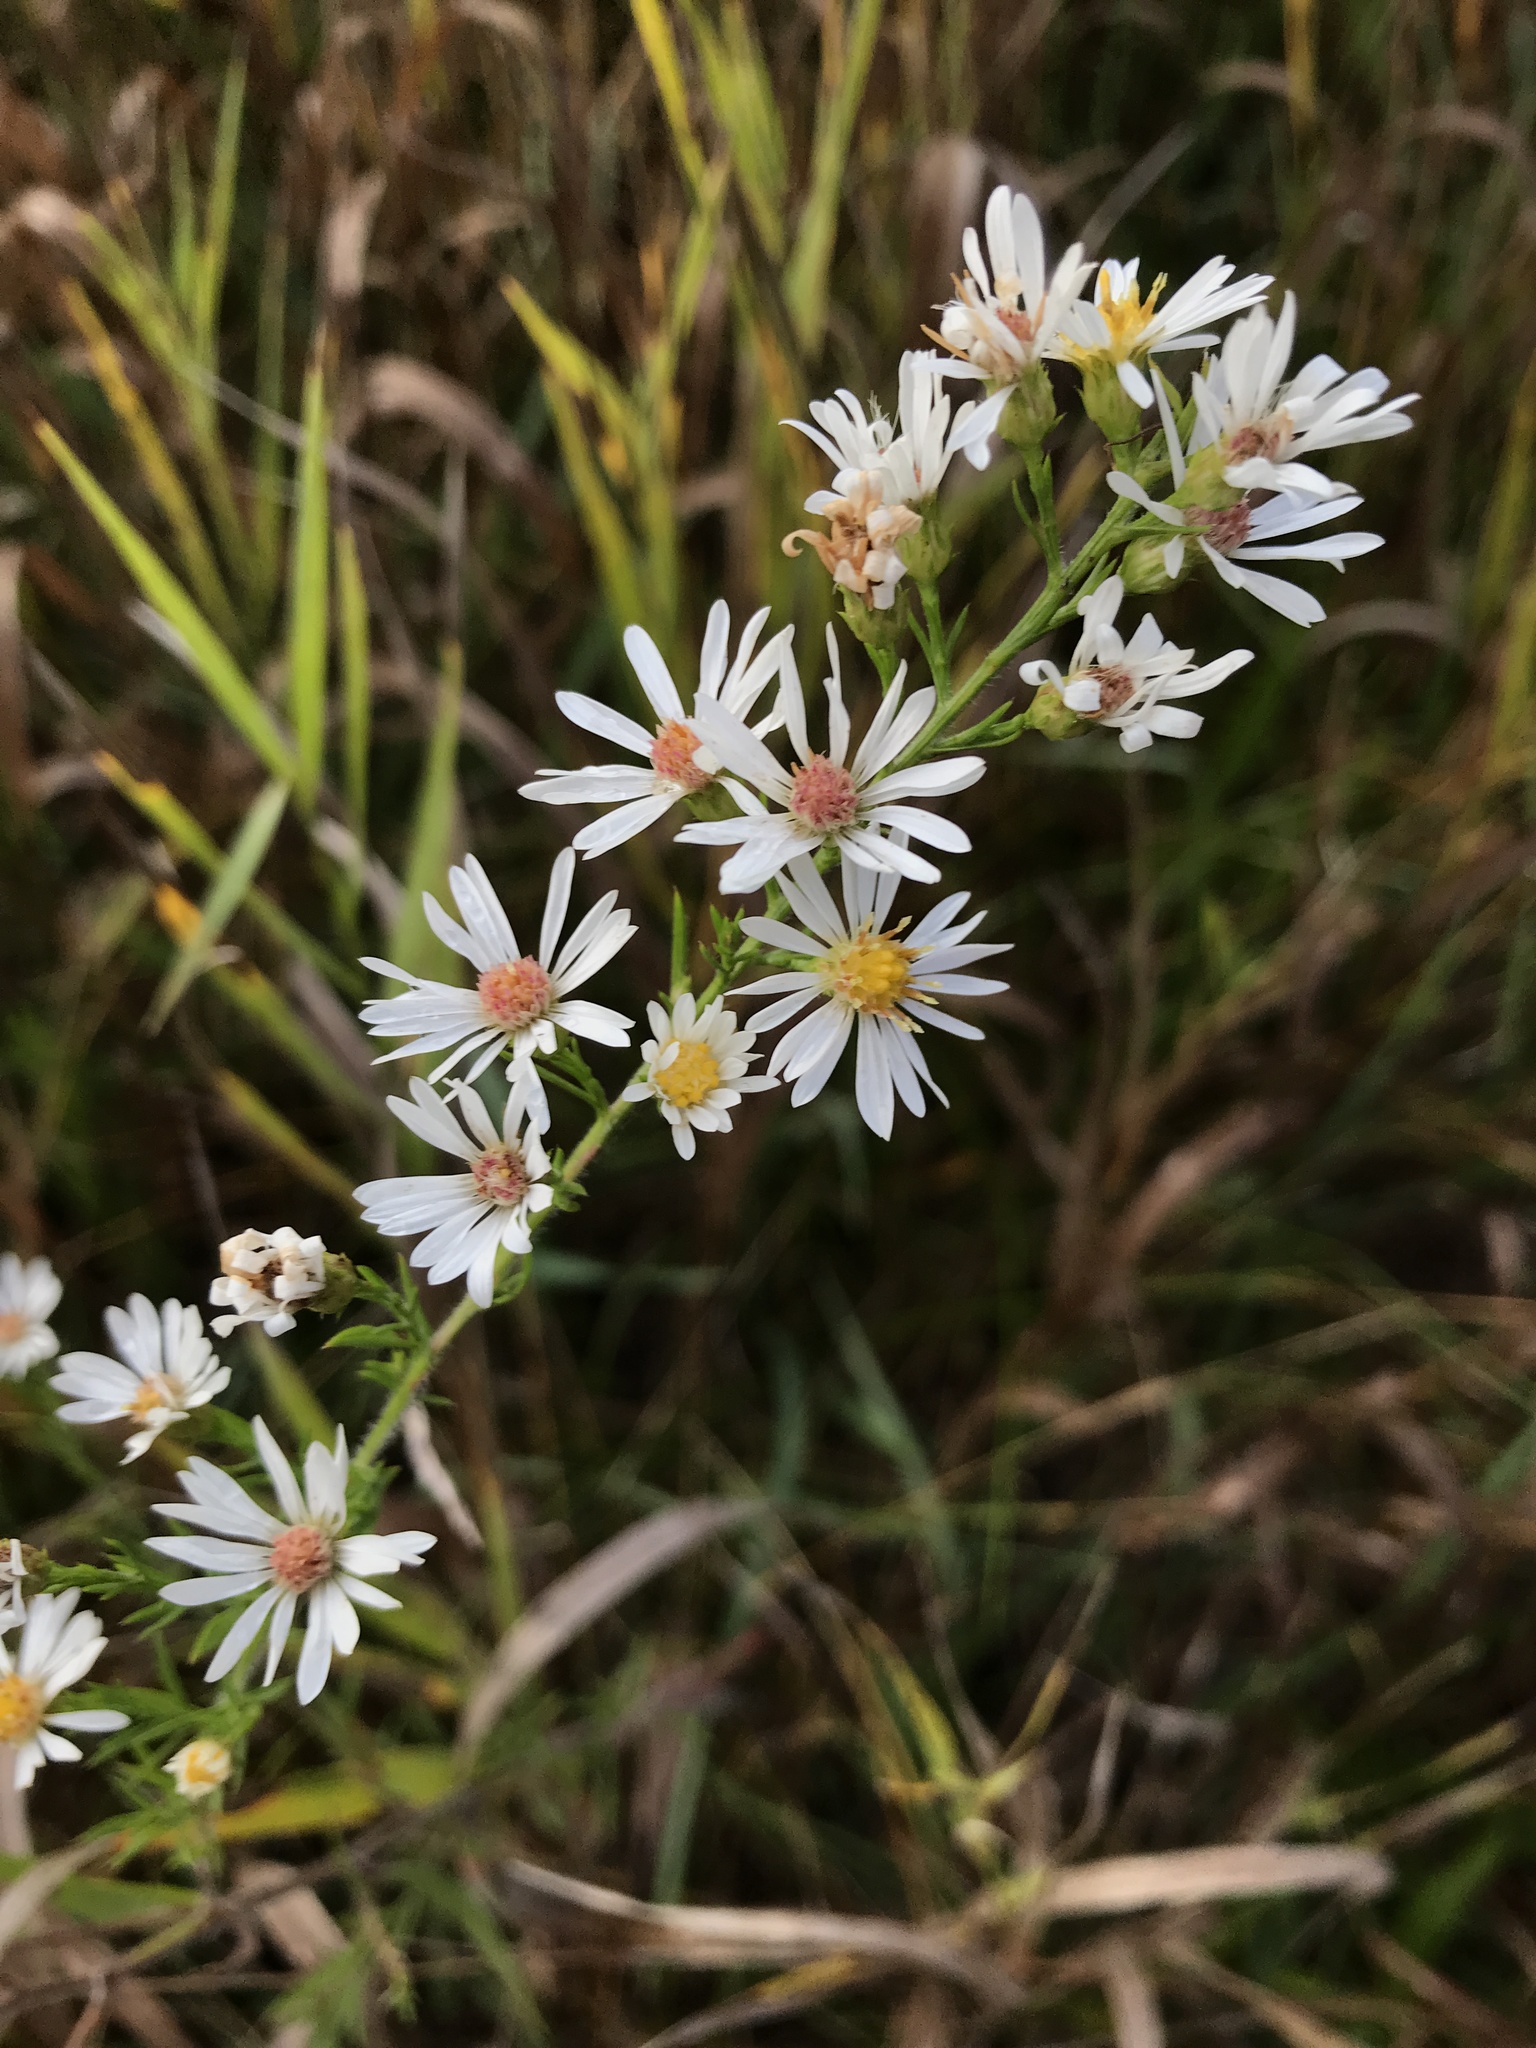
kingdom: Plantae
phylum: Tracheophyta
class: Magnoliopsida
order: Asterales
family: Asteraceae
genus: Symphyotrichum
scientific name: Symphyotrichum pilosum
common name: Awl aster
